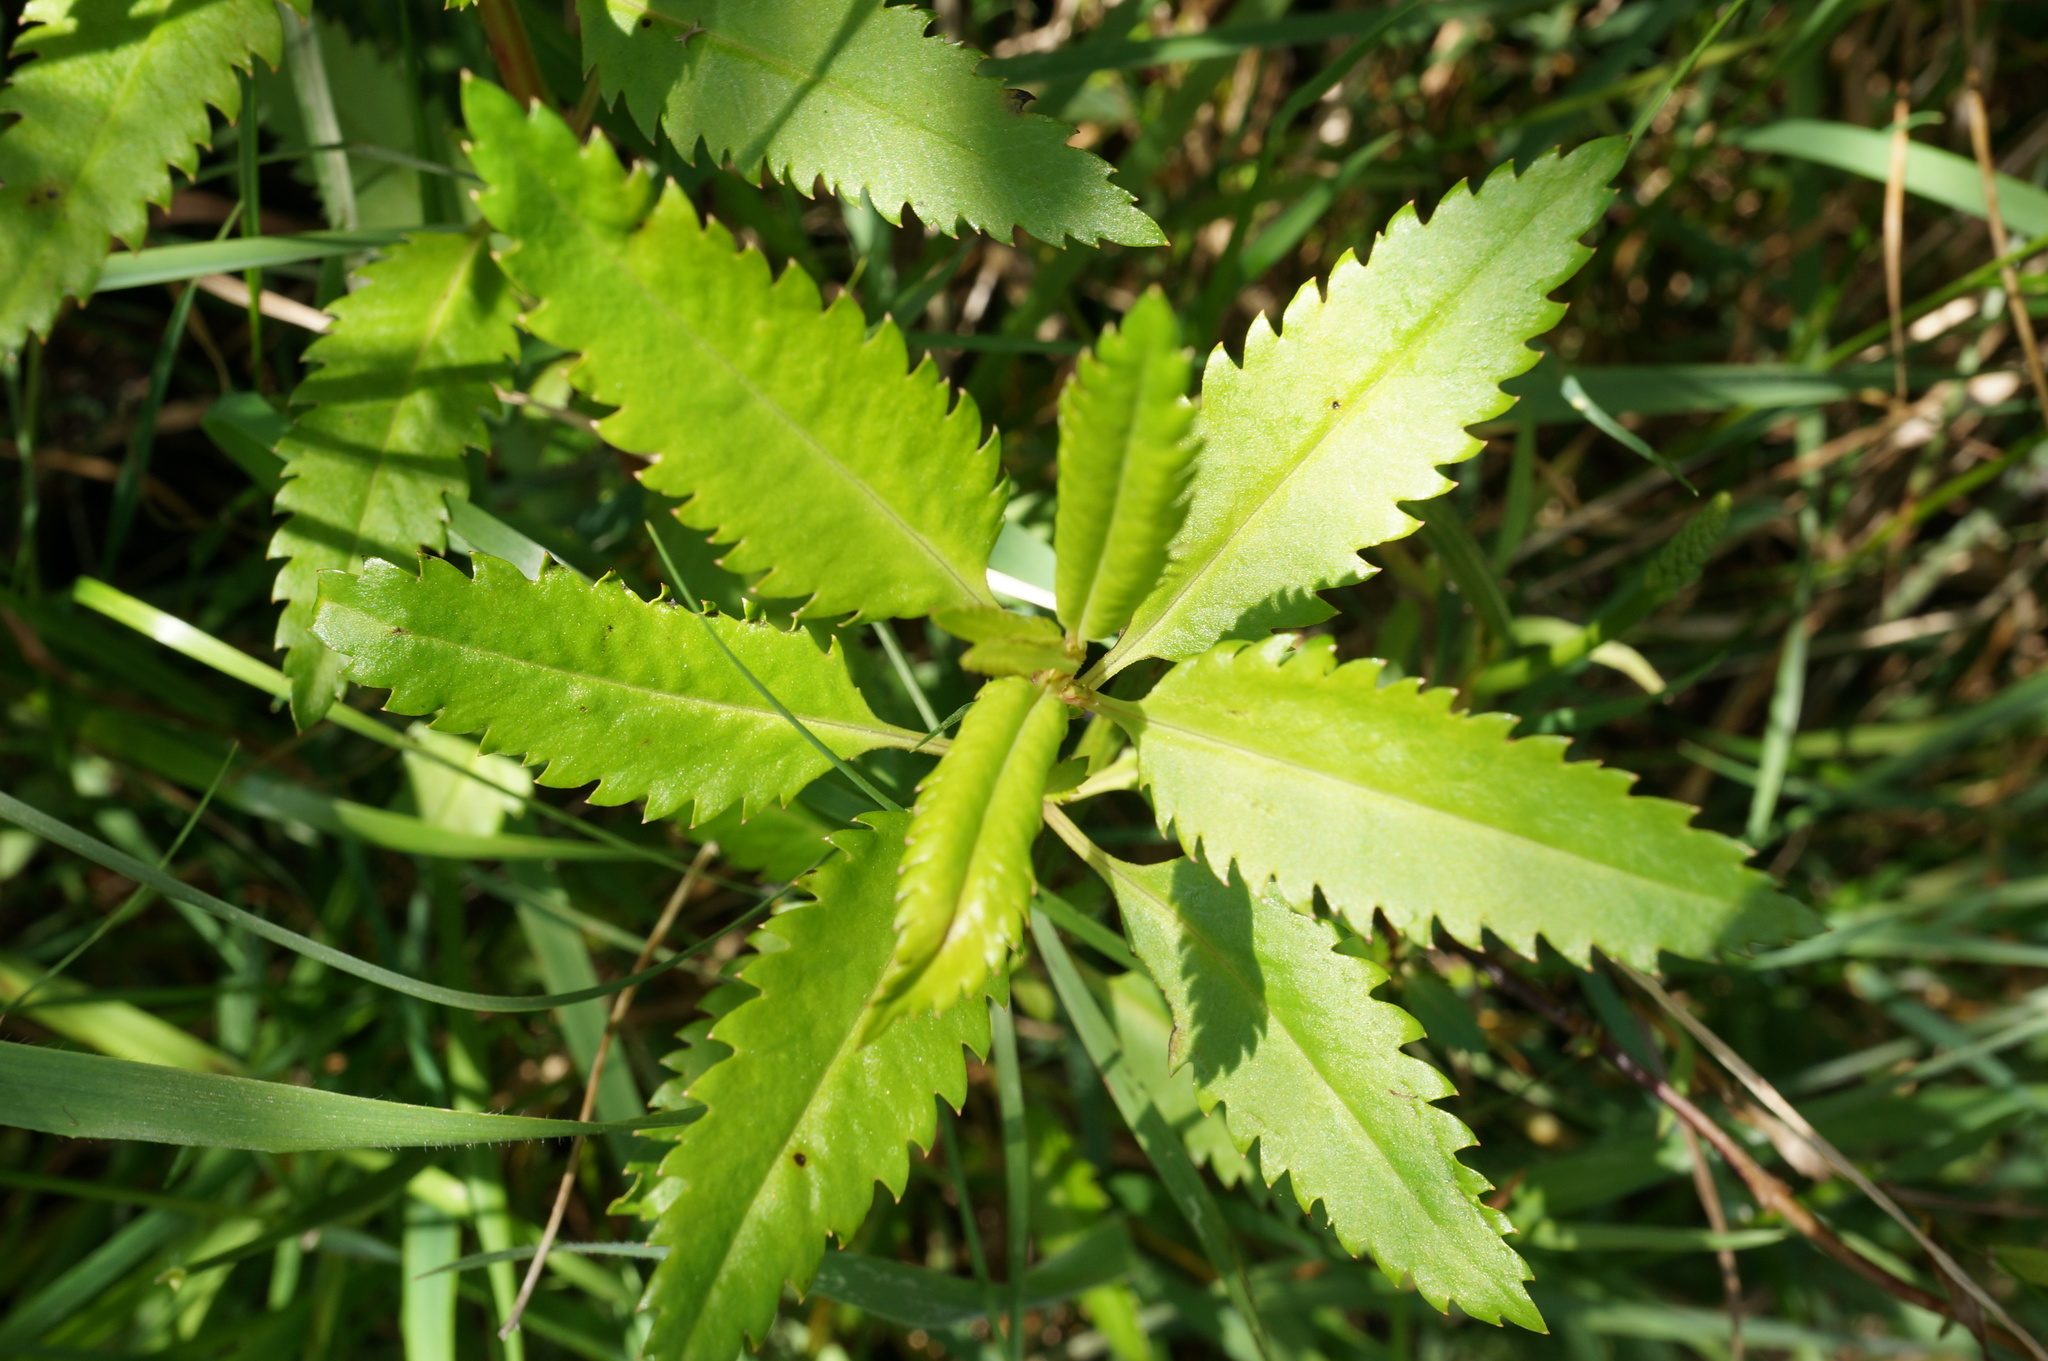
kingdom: Plantae
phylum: Tracheophyta
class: Magnoliopsida
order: Saxifragales
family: Haloragaceae
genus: Haloragis
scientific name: Haloragis erecta
